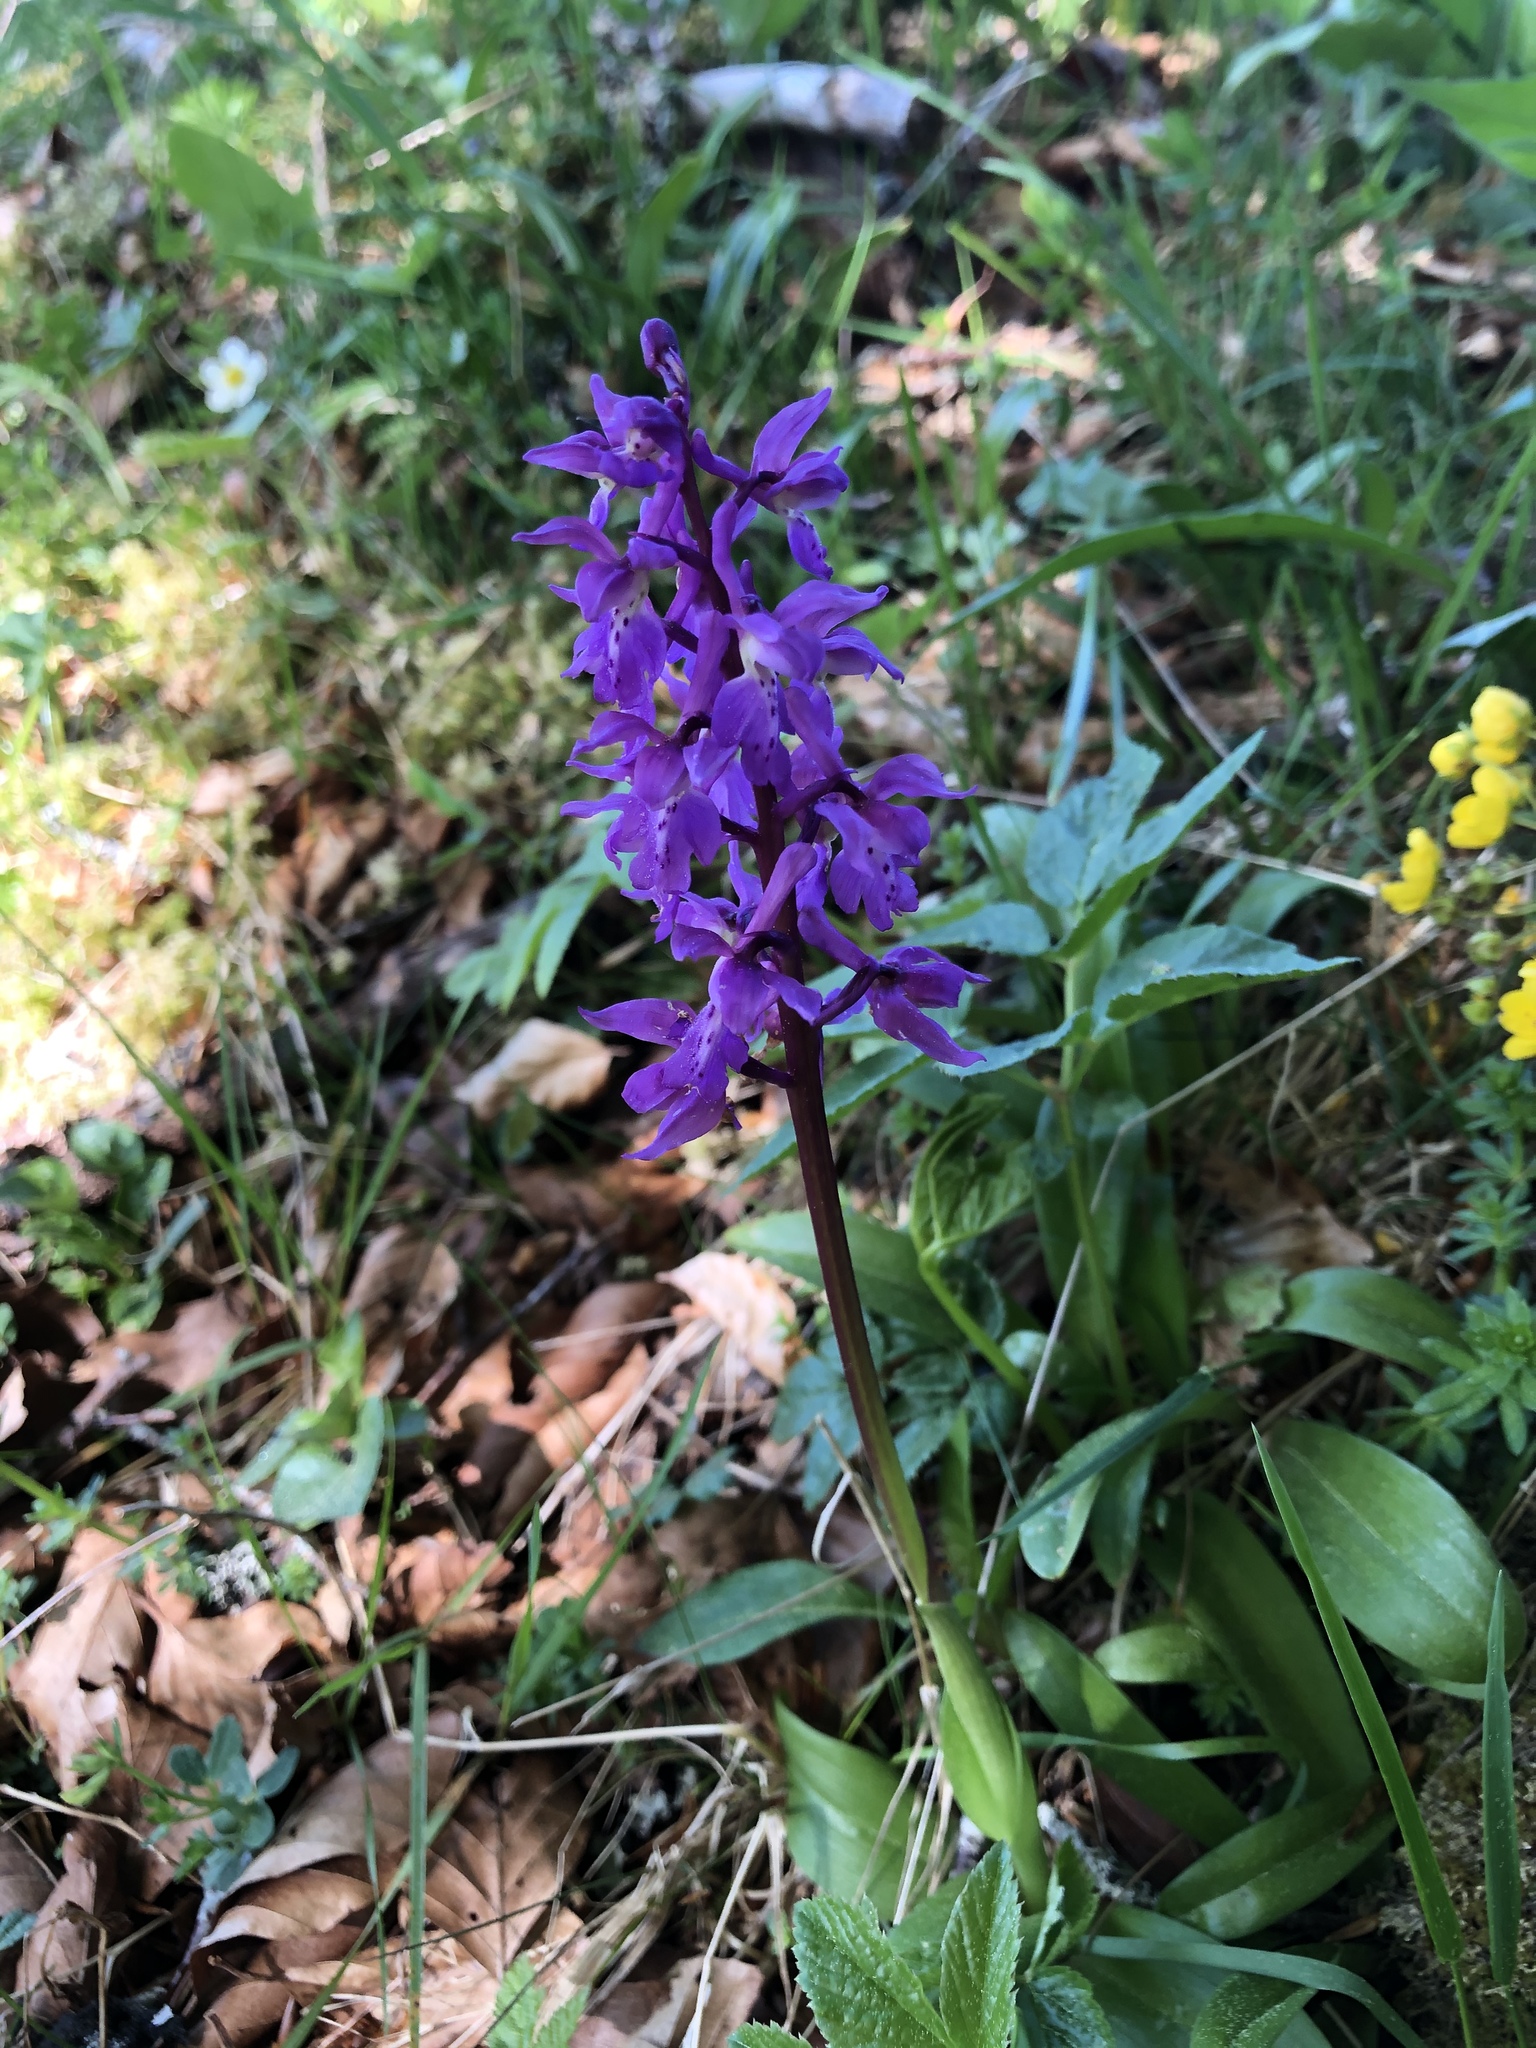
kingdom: Plantae
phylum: Tracheophyta
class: Liliopsida
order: Asparagales
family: Orchidaceae
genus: Orchis
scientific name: Orchis mascula
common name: Early-purple orchid
